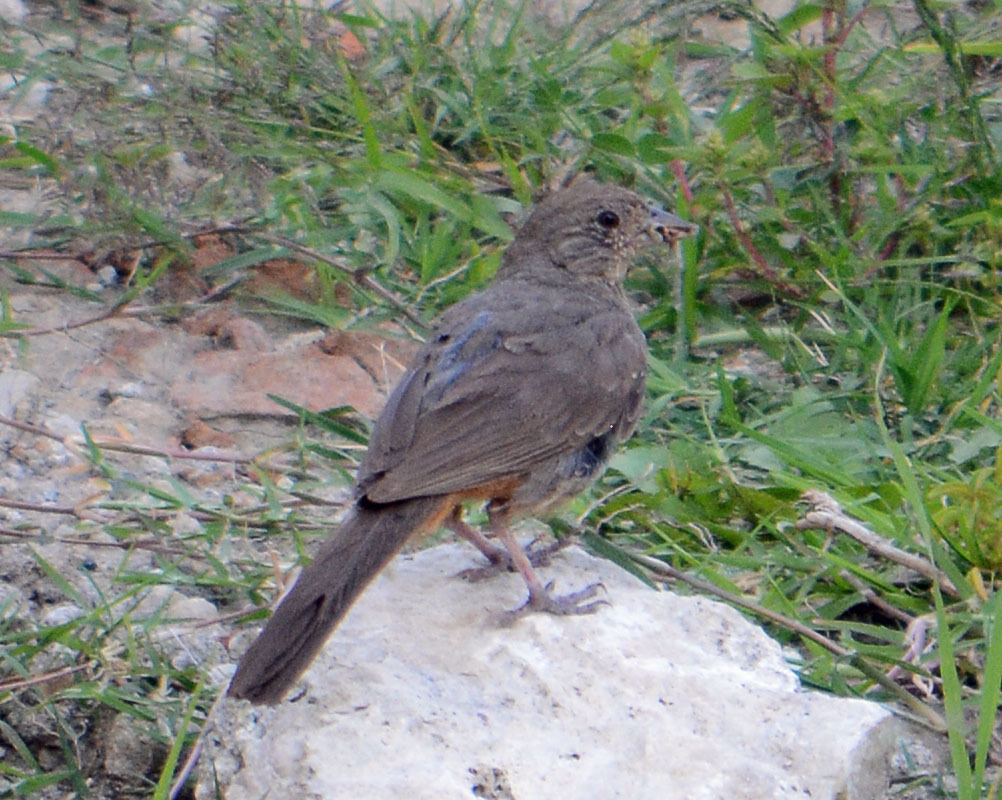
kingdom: Animalia
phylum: Chordata
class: Aves
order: Passeriformes
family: Passerellidae
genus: Melozone
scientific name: Melozone fusca
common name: Canyon towhee
